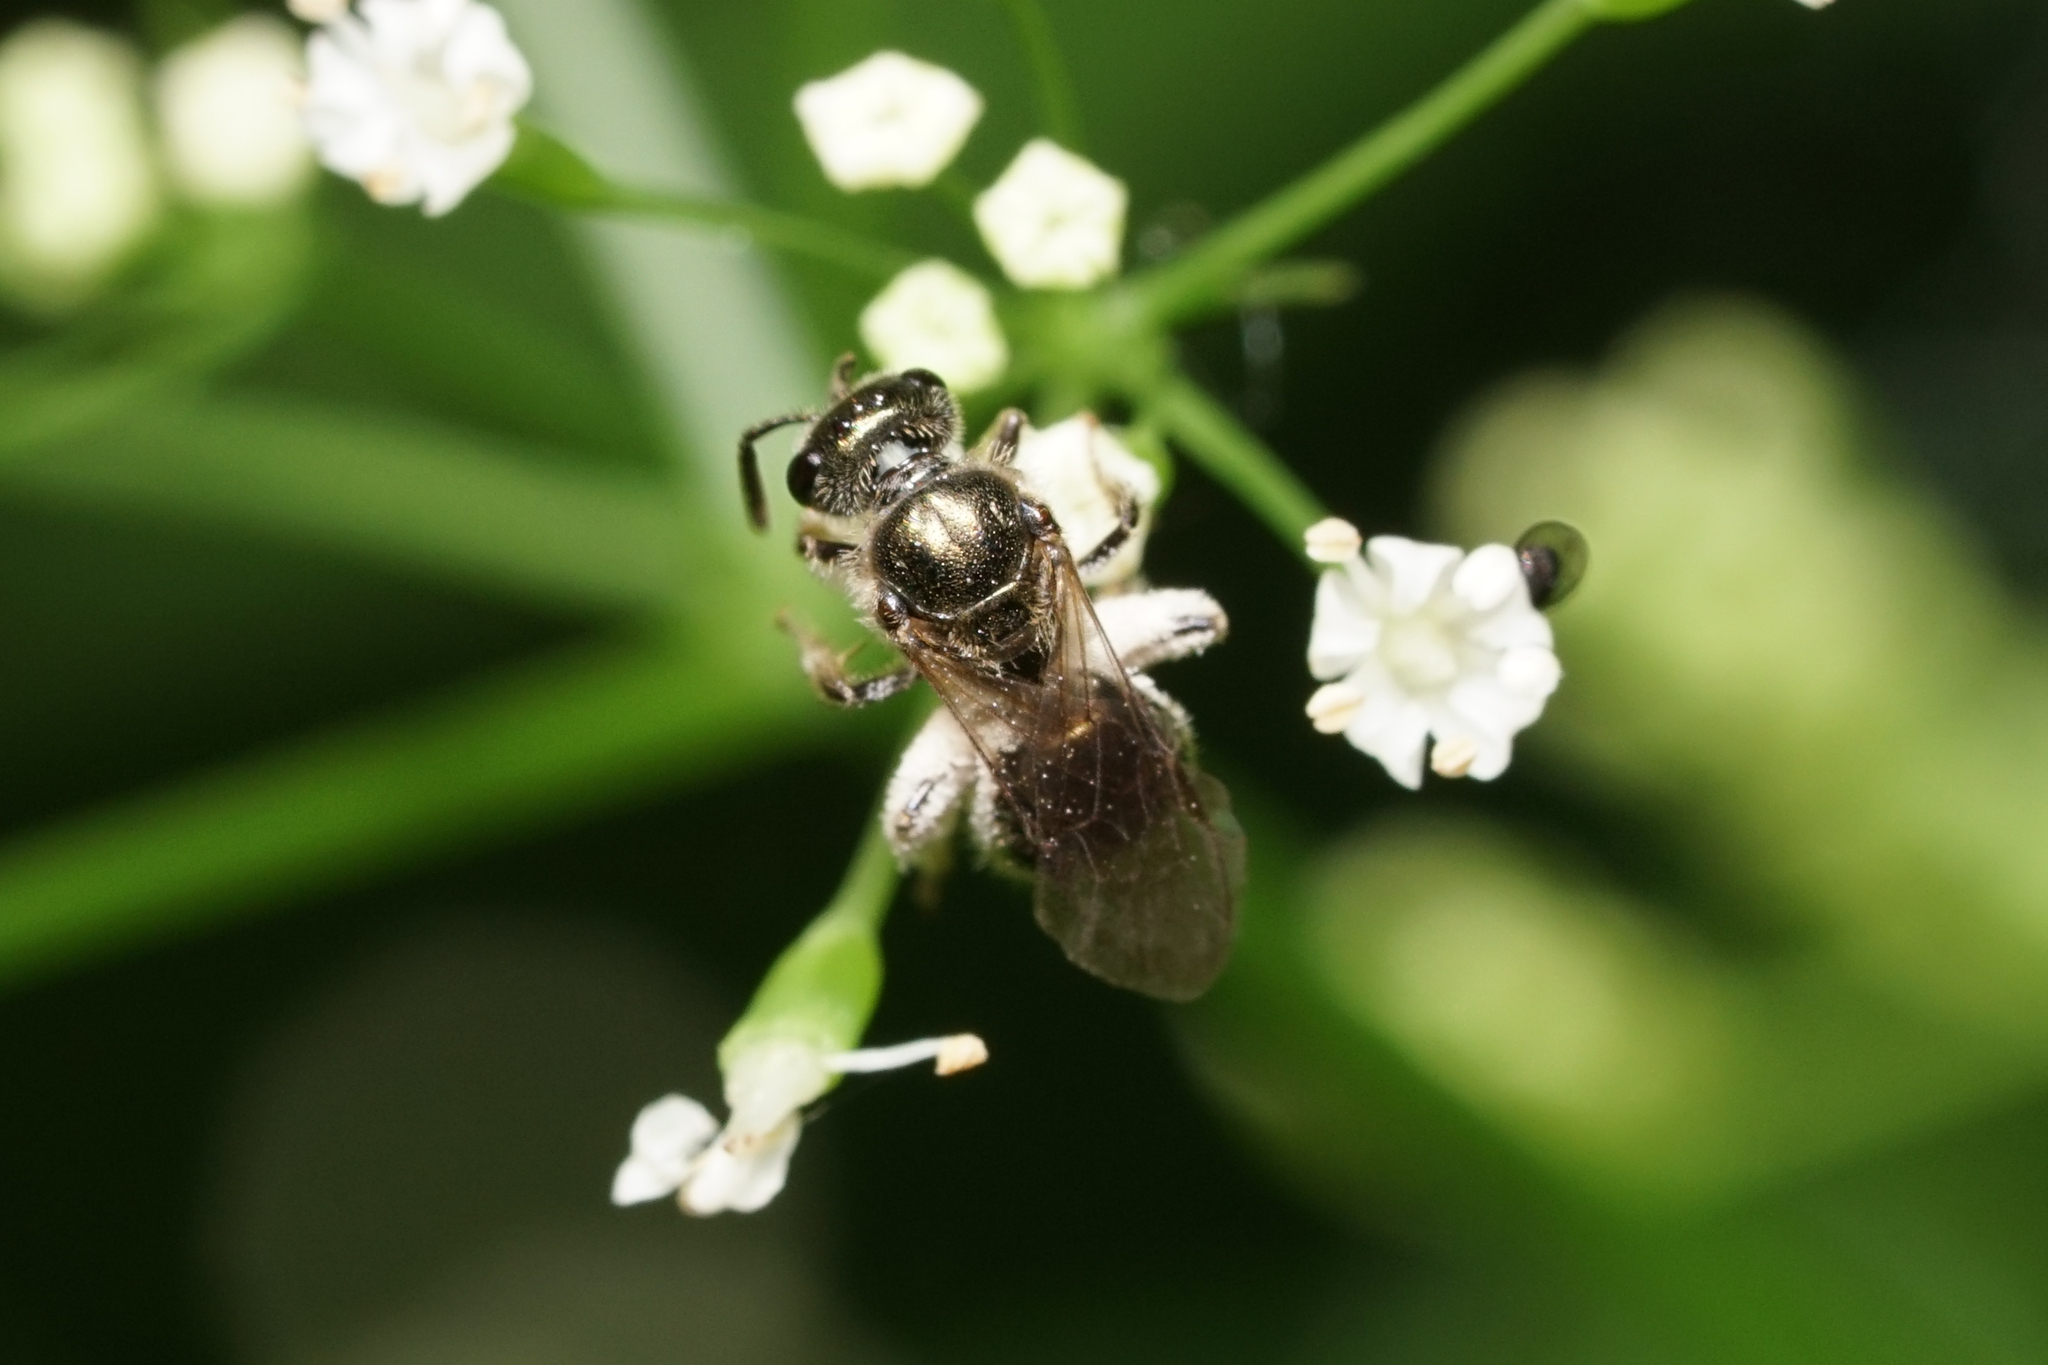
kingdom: Animalia
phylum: Arthropoda
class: Insecta
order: Hymenoptera
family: Halictidae
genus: Dialictus
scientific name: Dialictus
